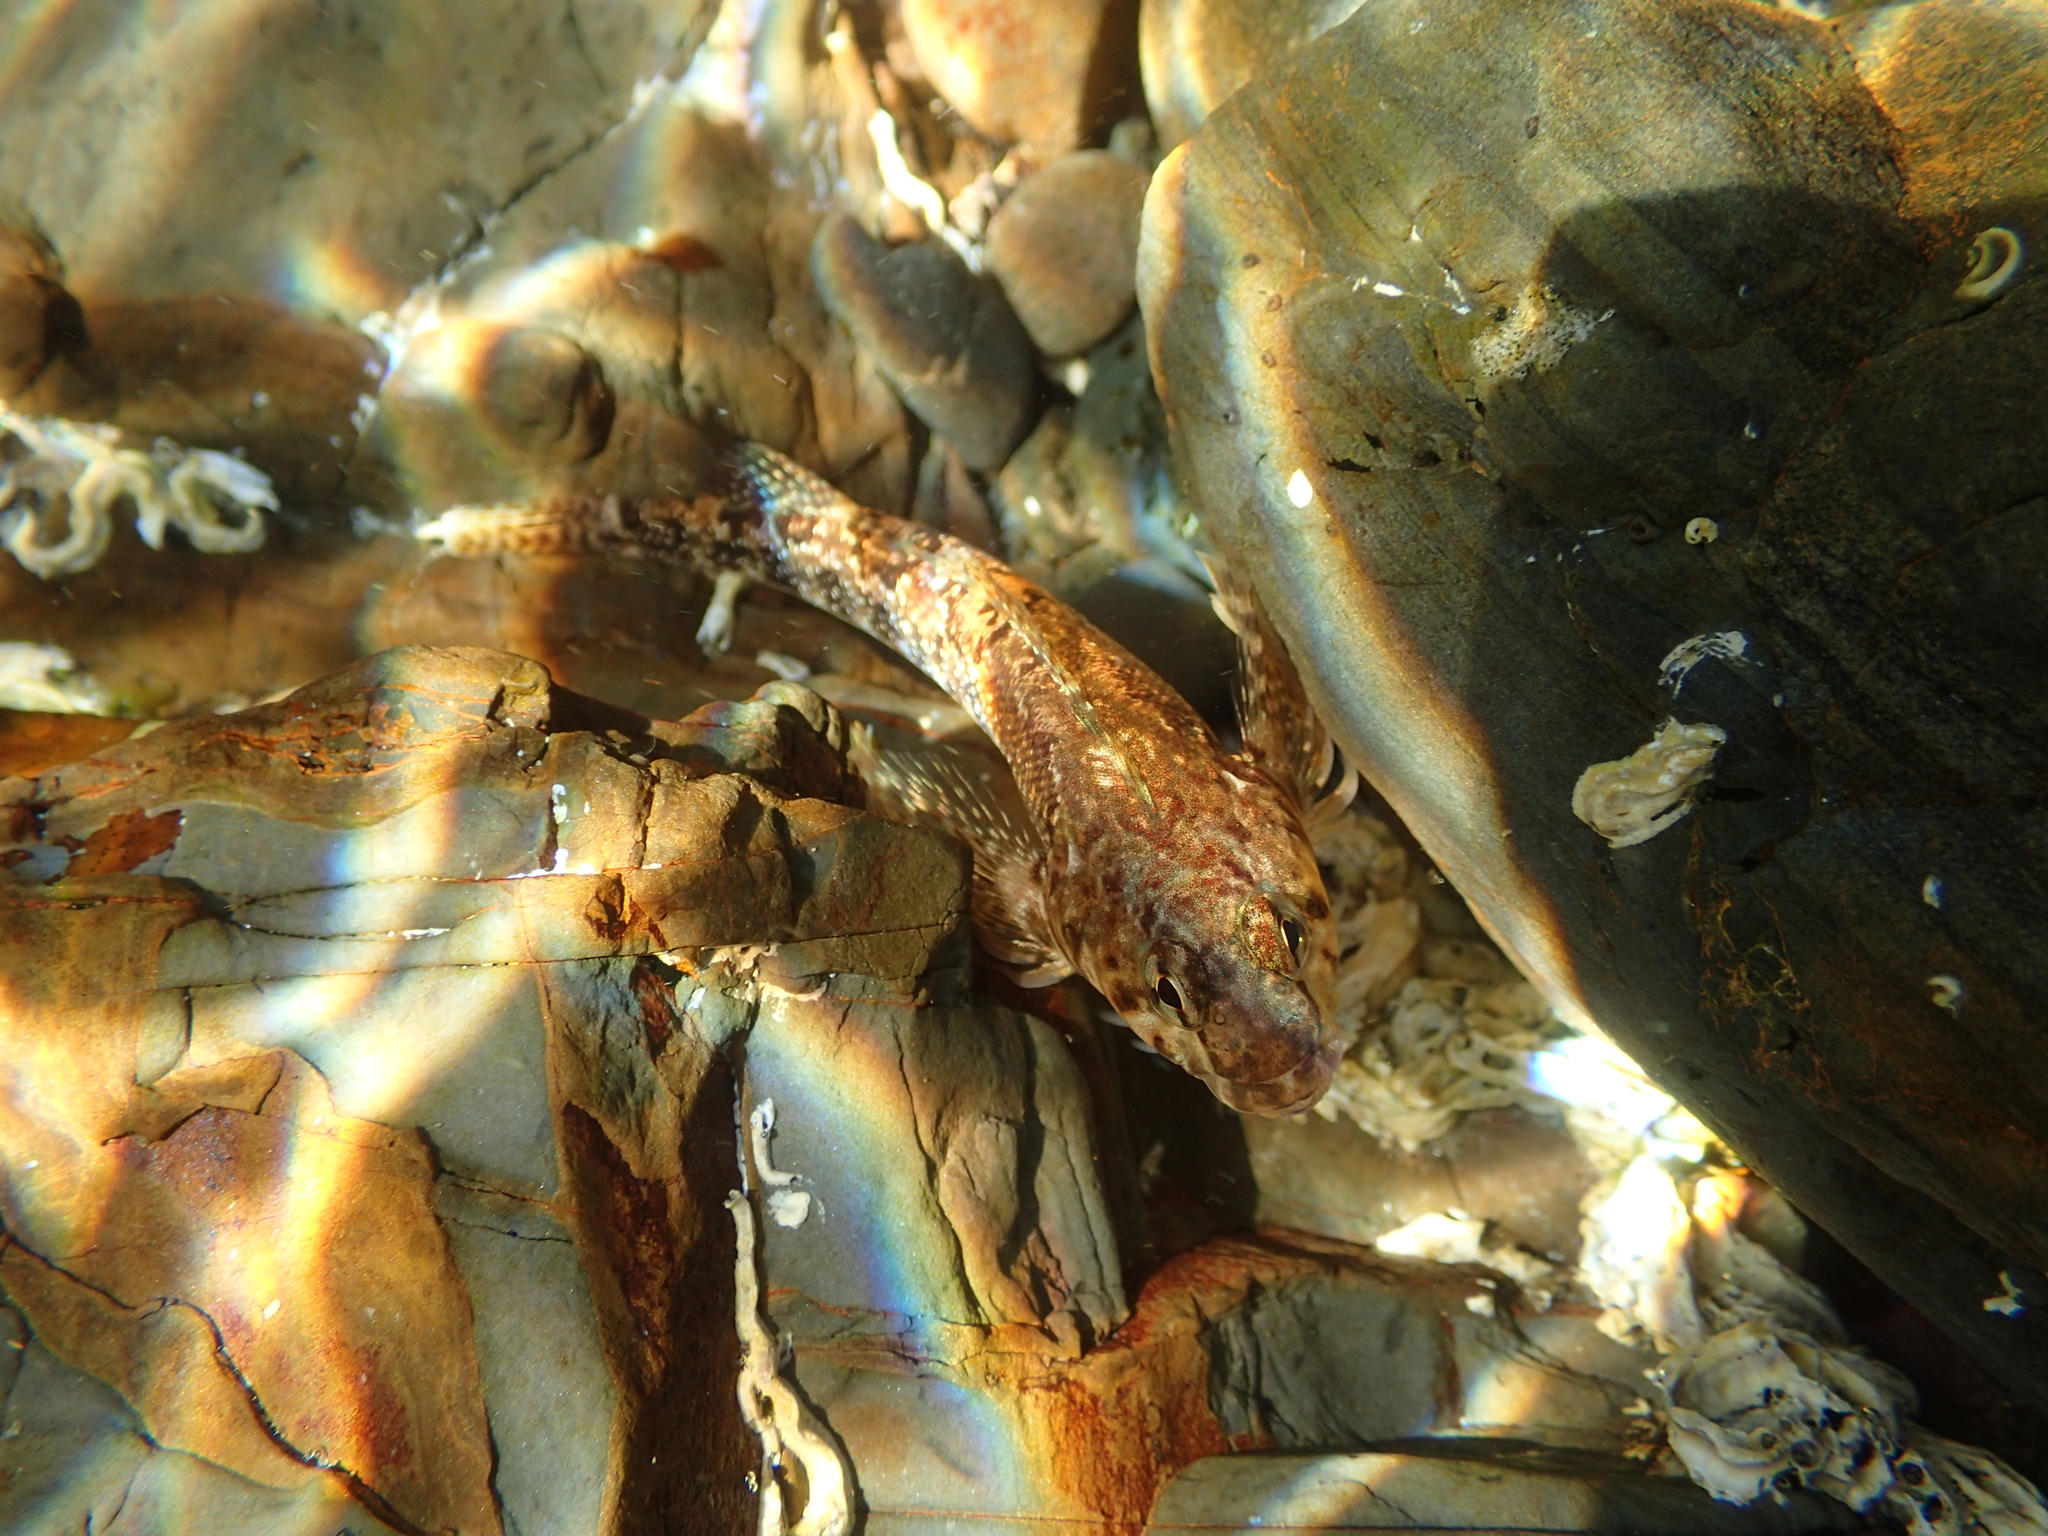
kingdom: Animalia
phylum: Chordata
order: Perciformes
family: Tripterygiidae
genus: Bellapiscis
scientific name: Bellapiscis medius
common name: Twister
